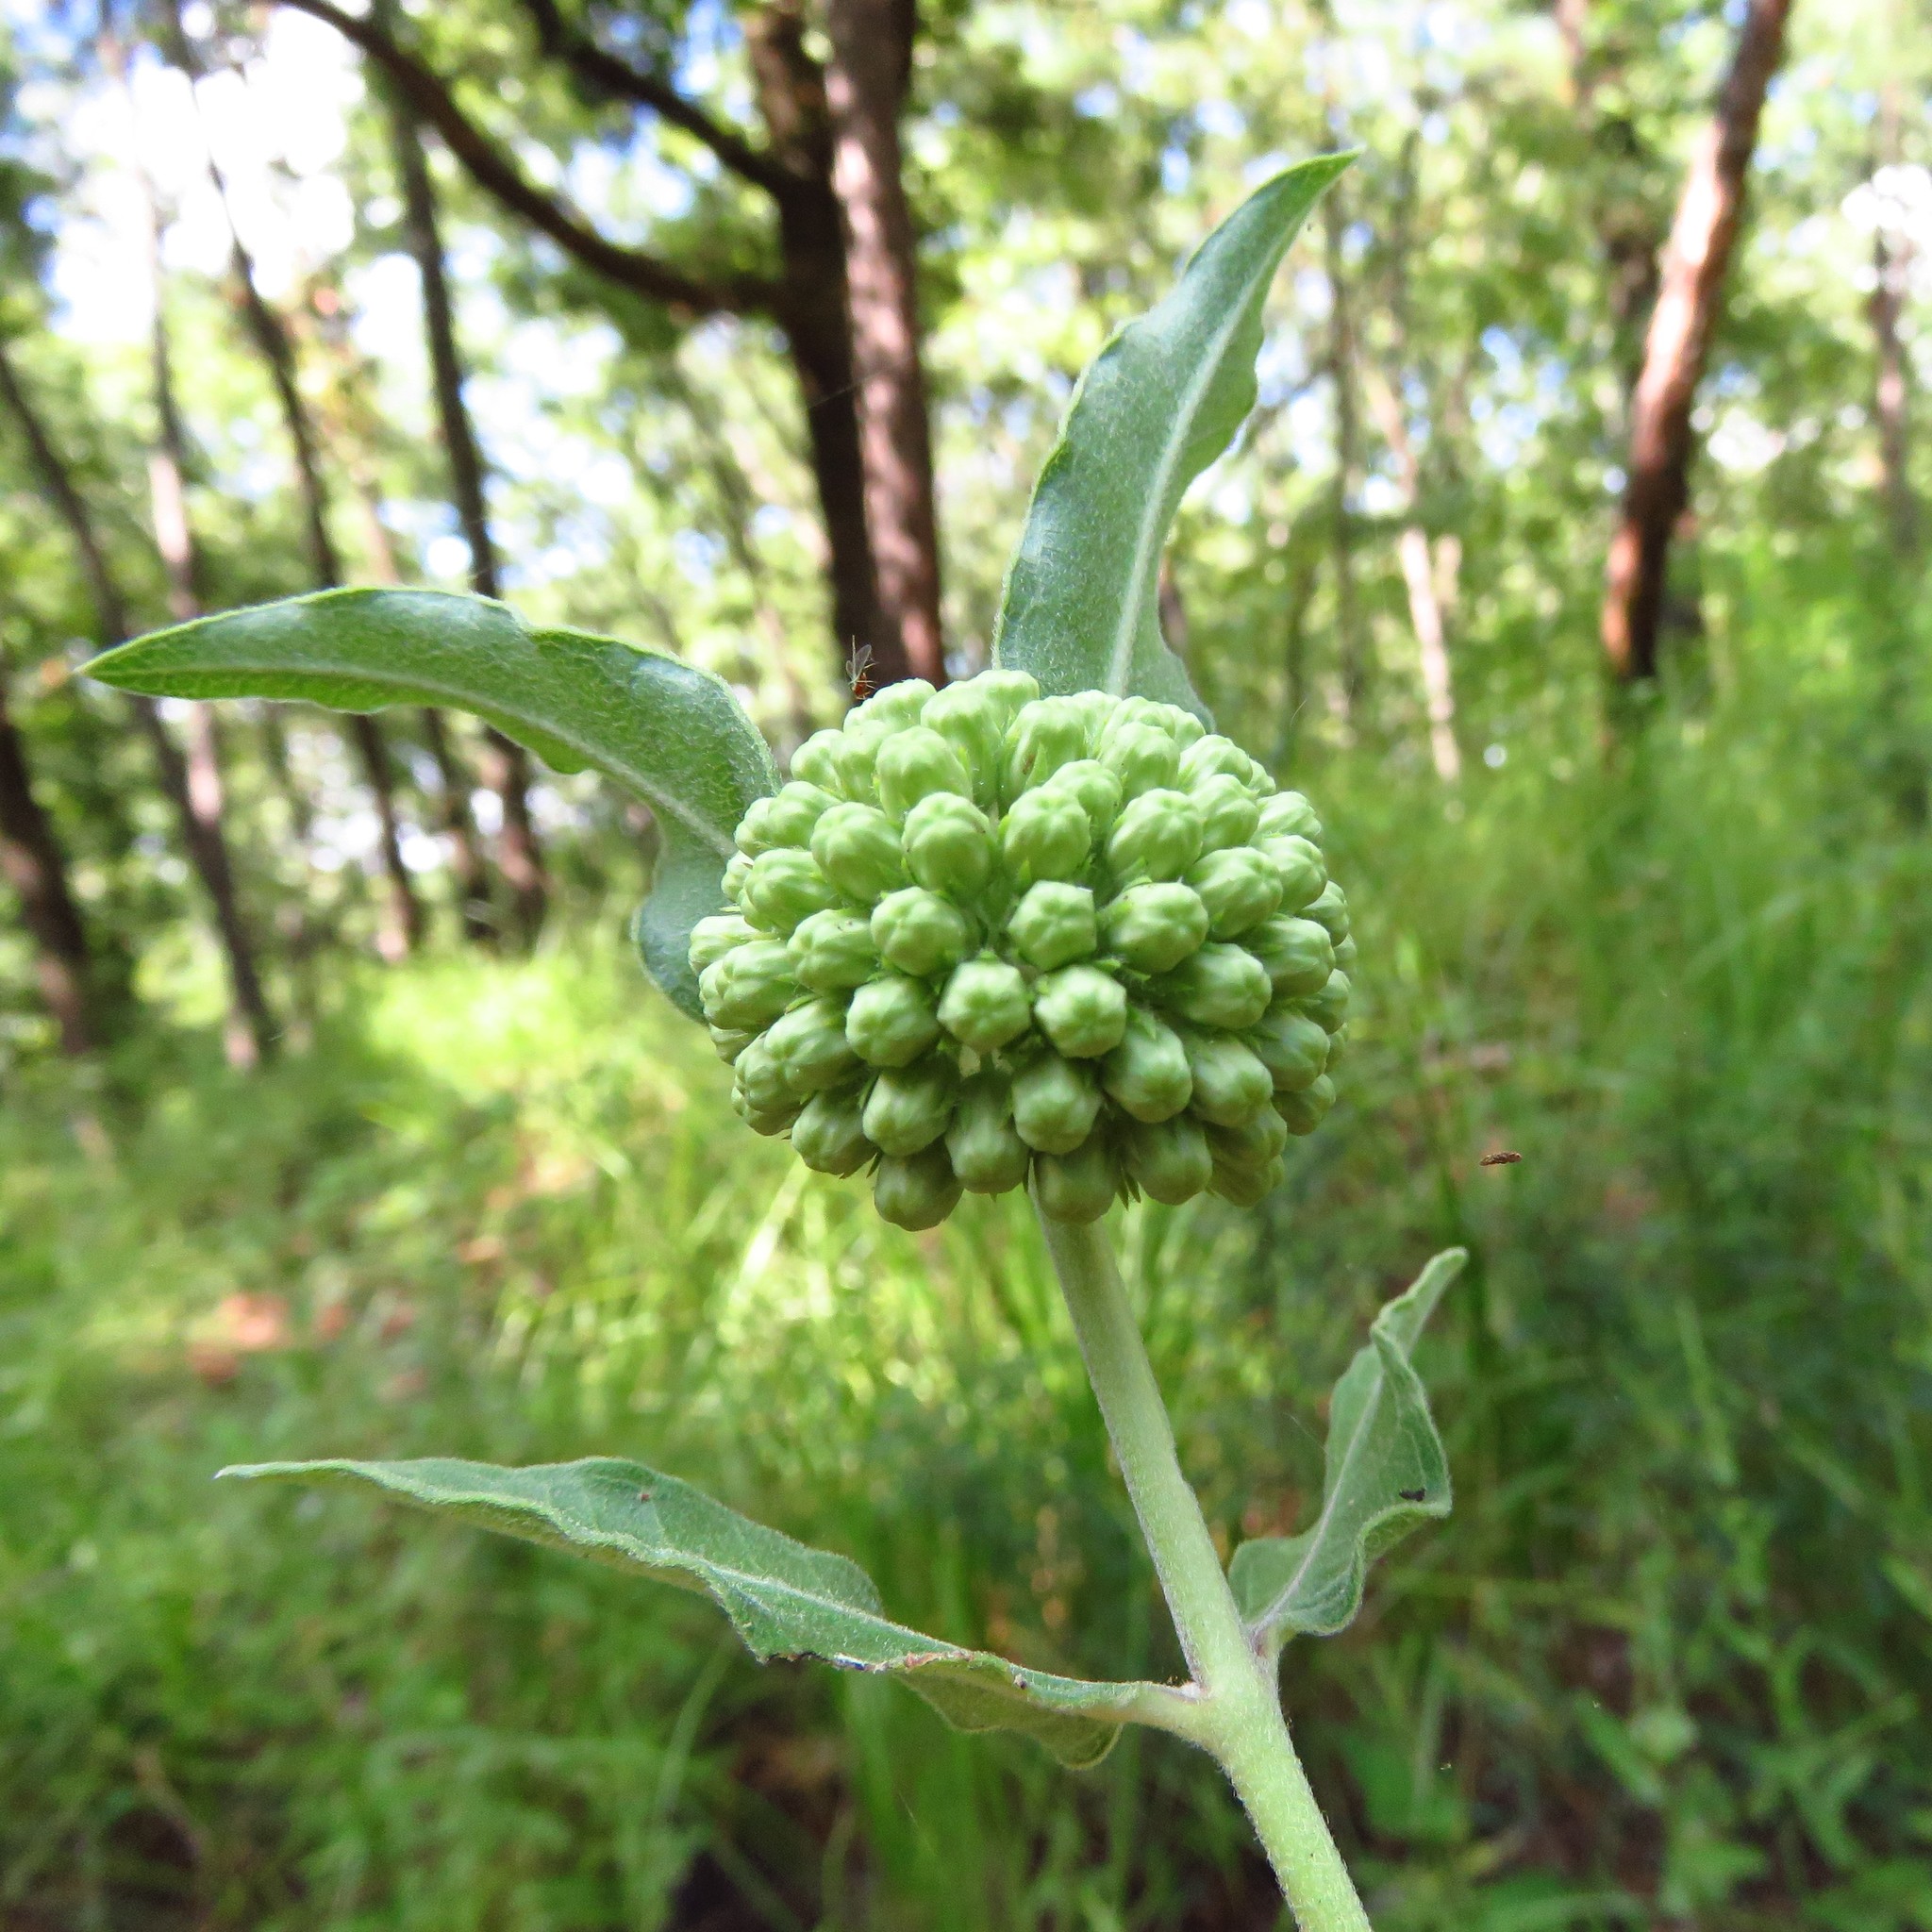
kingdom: Plantae
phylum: Tracheophyta
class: Magnoliopsida
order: Gentianales
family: Apocynaceae
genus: Asclepias
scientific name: Asclepias viridiflora
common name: Green comet milkweed
